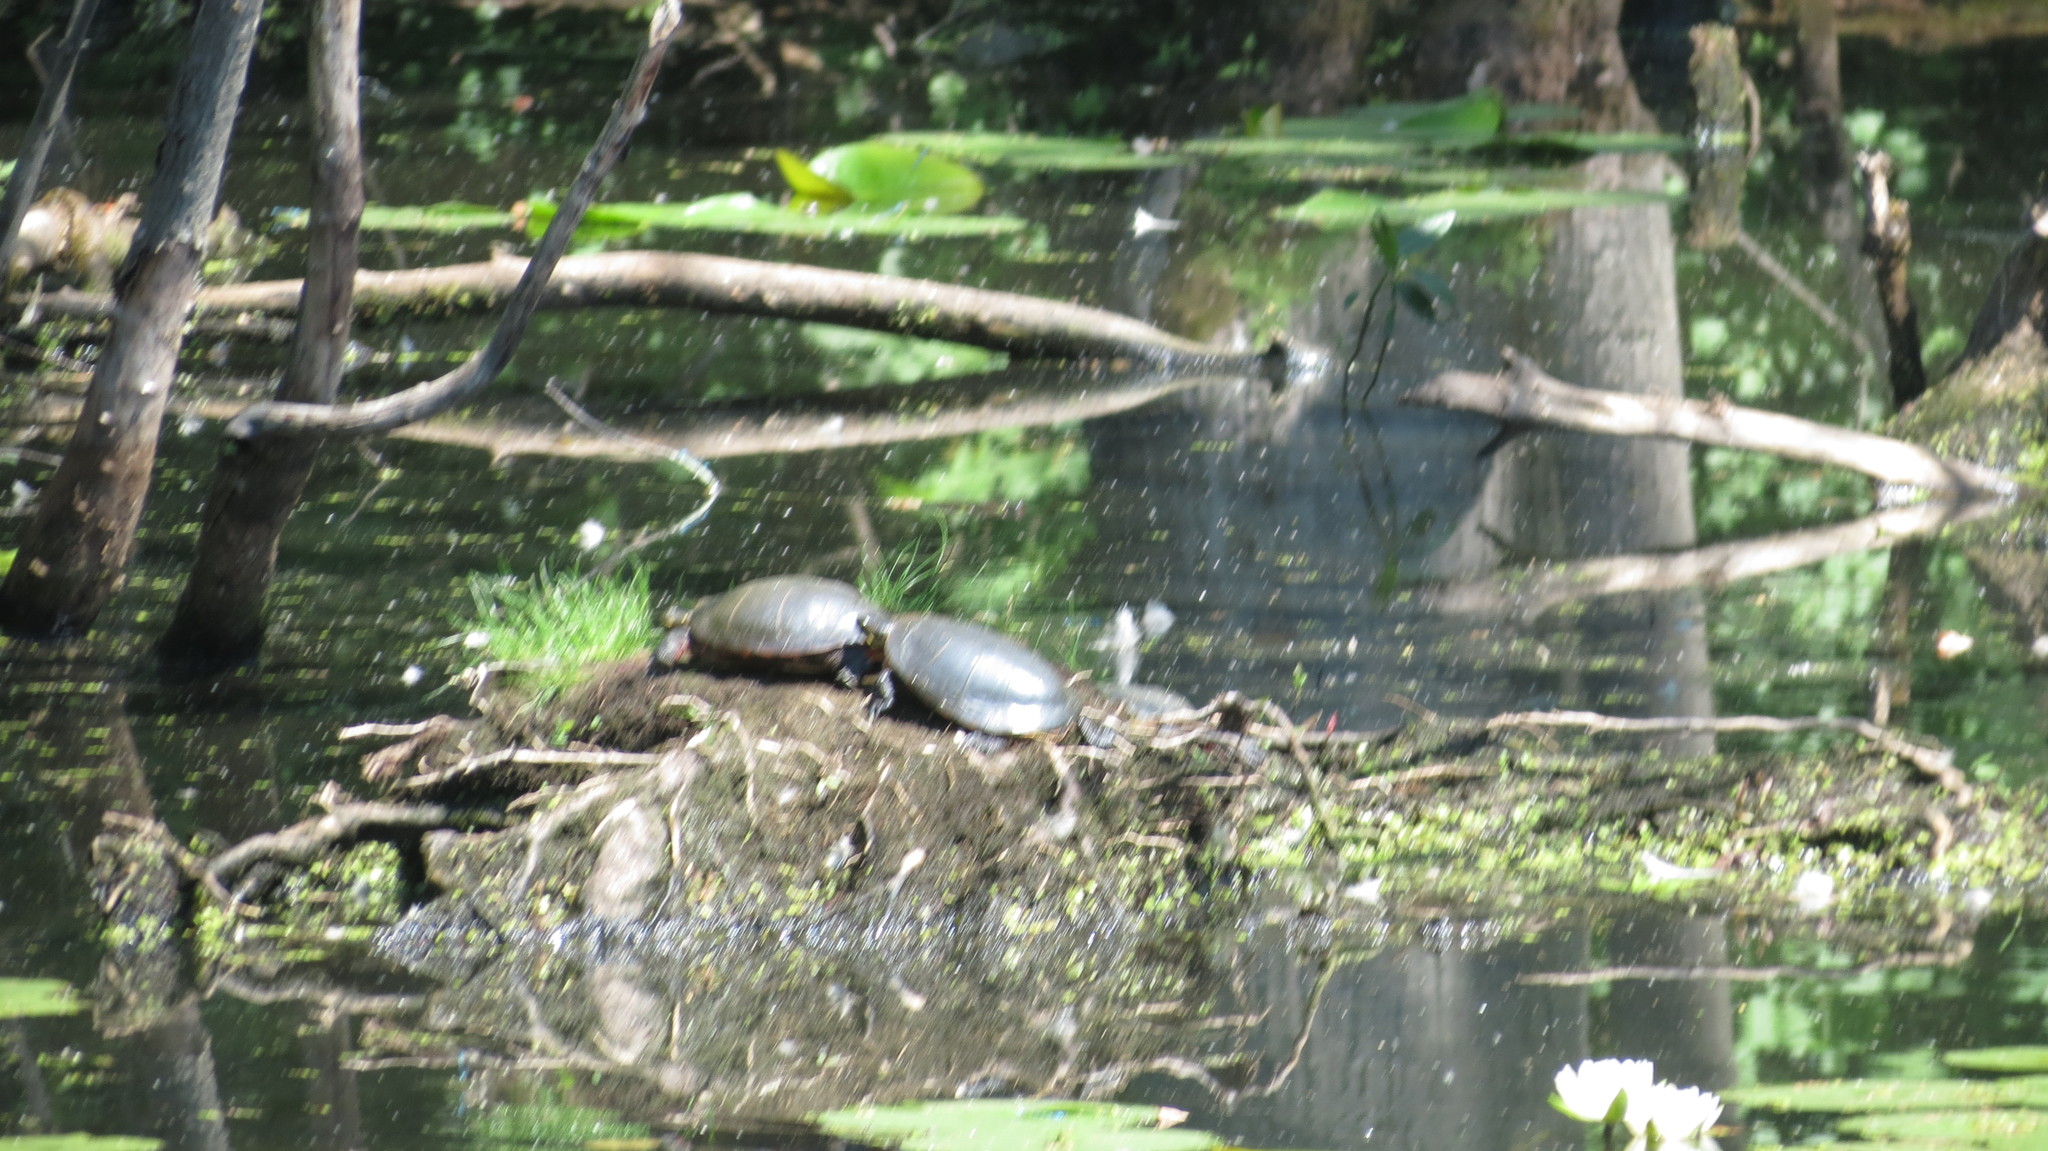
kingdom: Animalia
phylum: Chordata
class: Testudines
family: Emydidae
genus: Chrysemys
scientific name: Chrysemys picta
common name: Painted turtle
